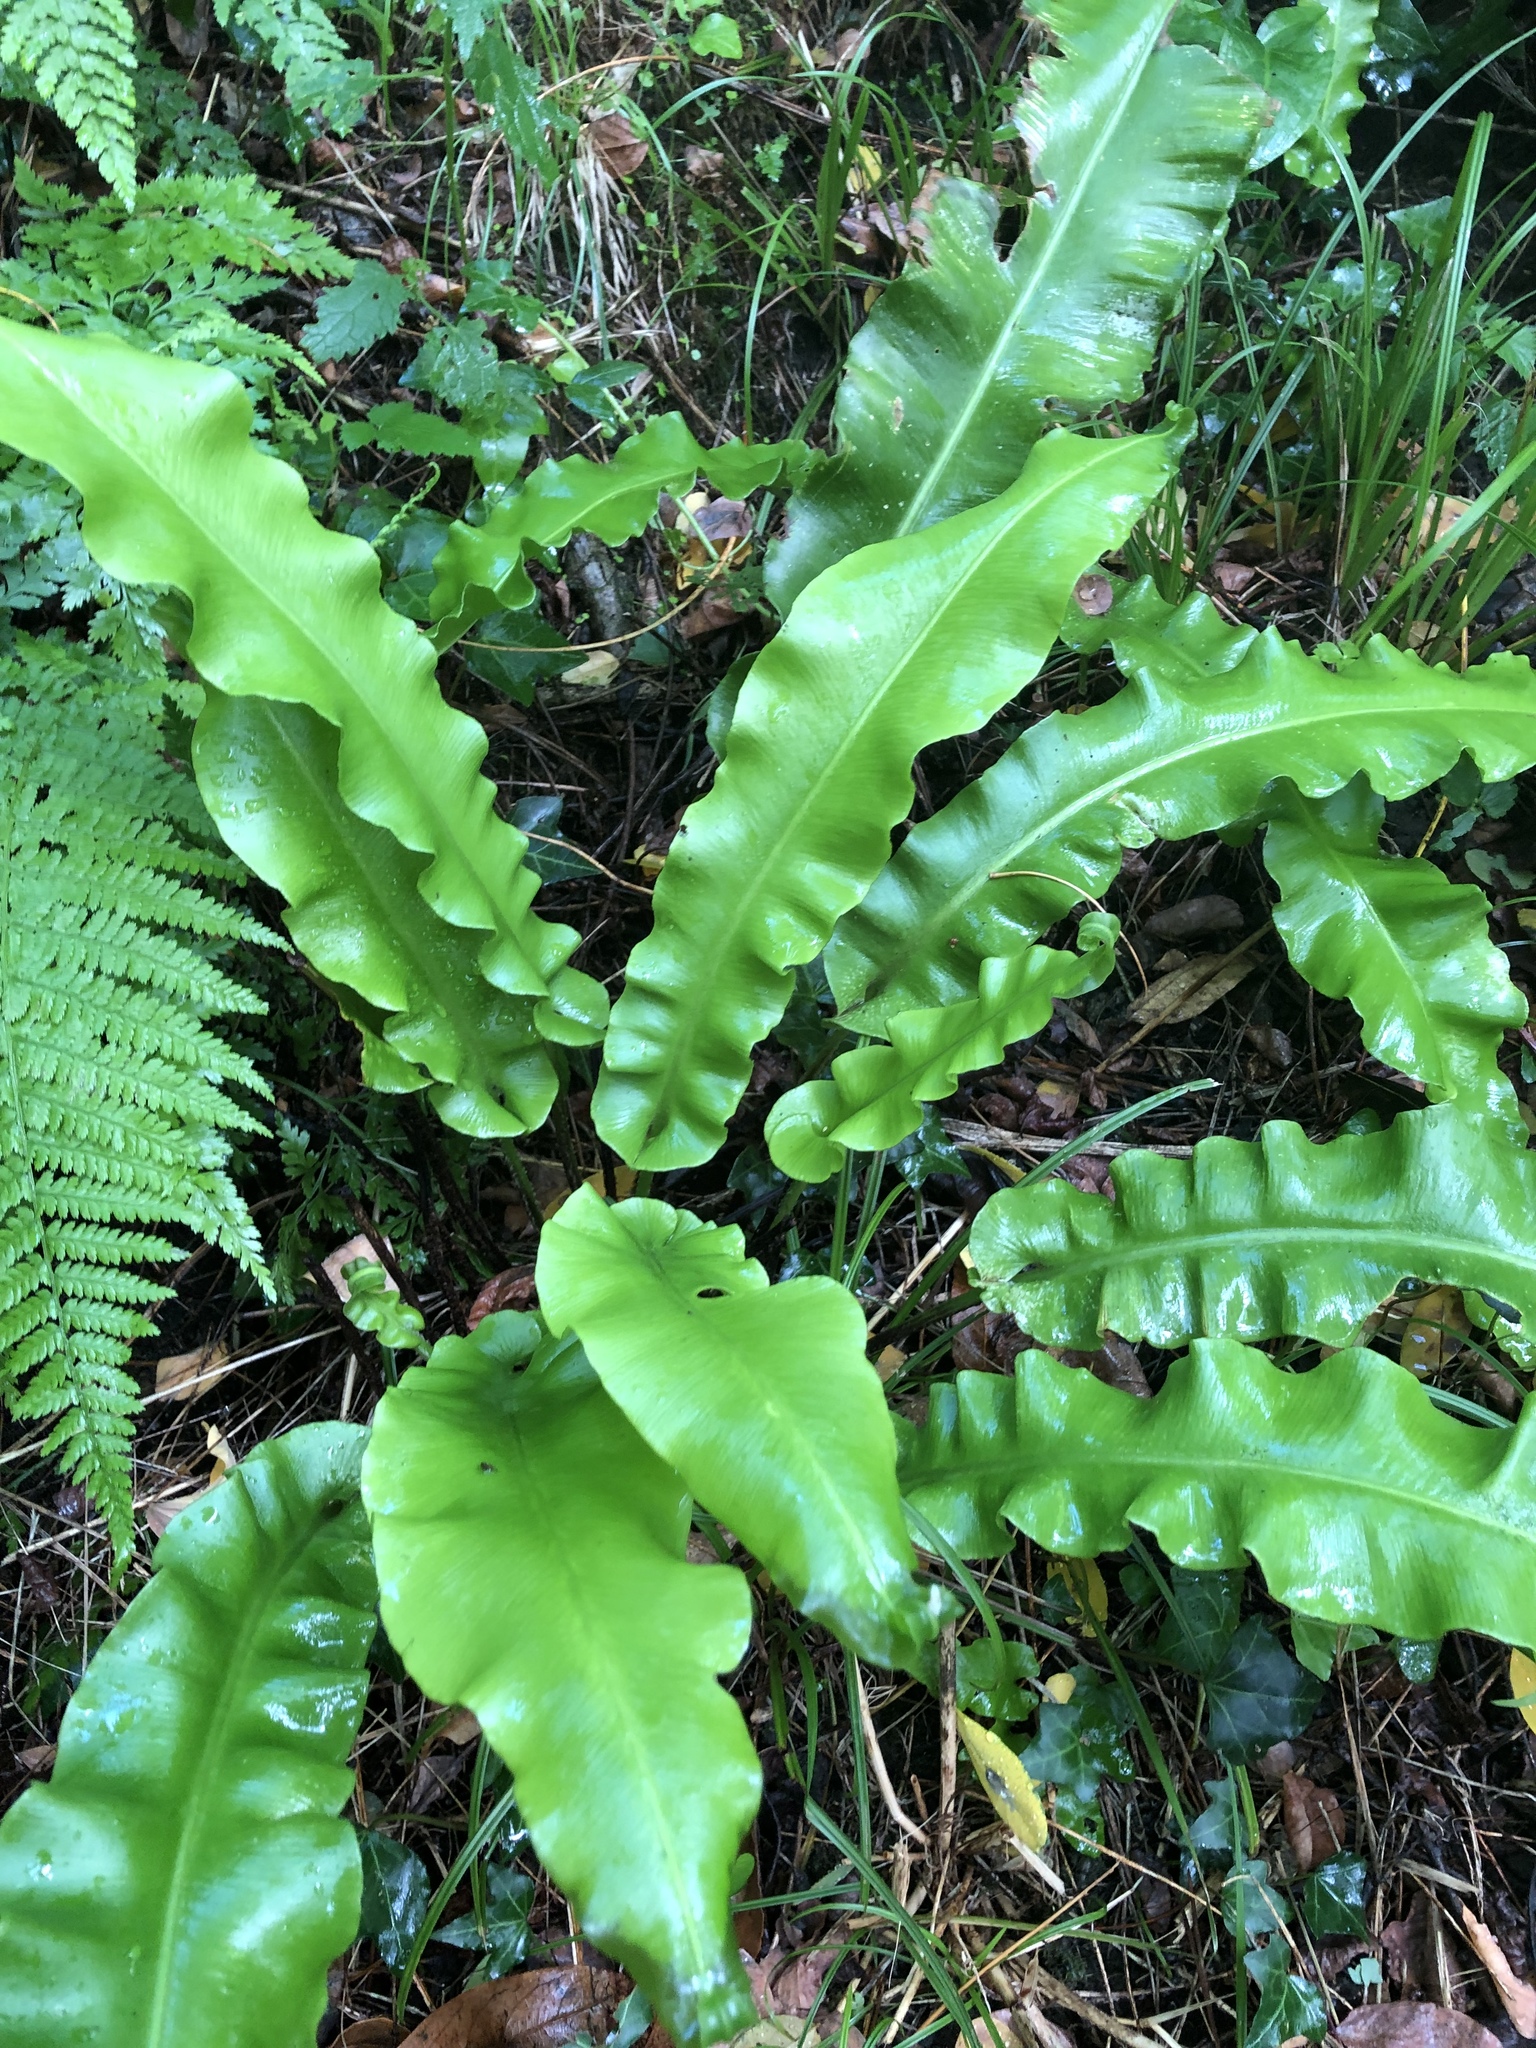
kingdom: Plantae
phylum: Tracheophyta
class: Polypodiopsida
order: Polypodiales
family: Aspleniaceae
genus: Asplenium
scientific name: Asplenium scolopendrium
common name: Hart's-tongue fern
